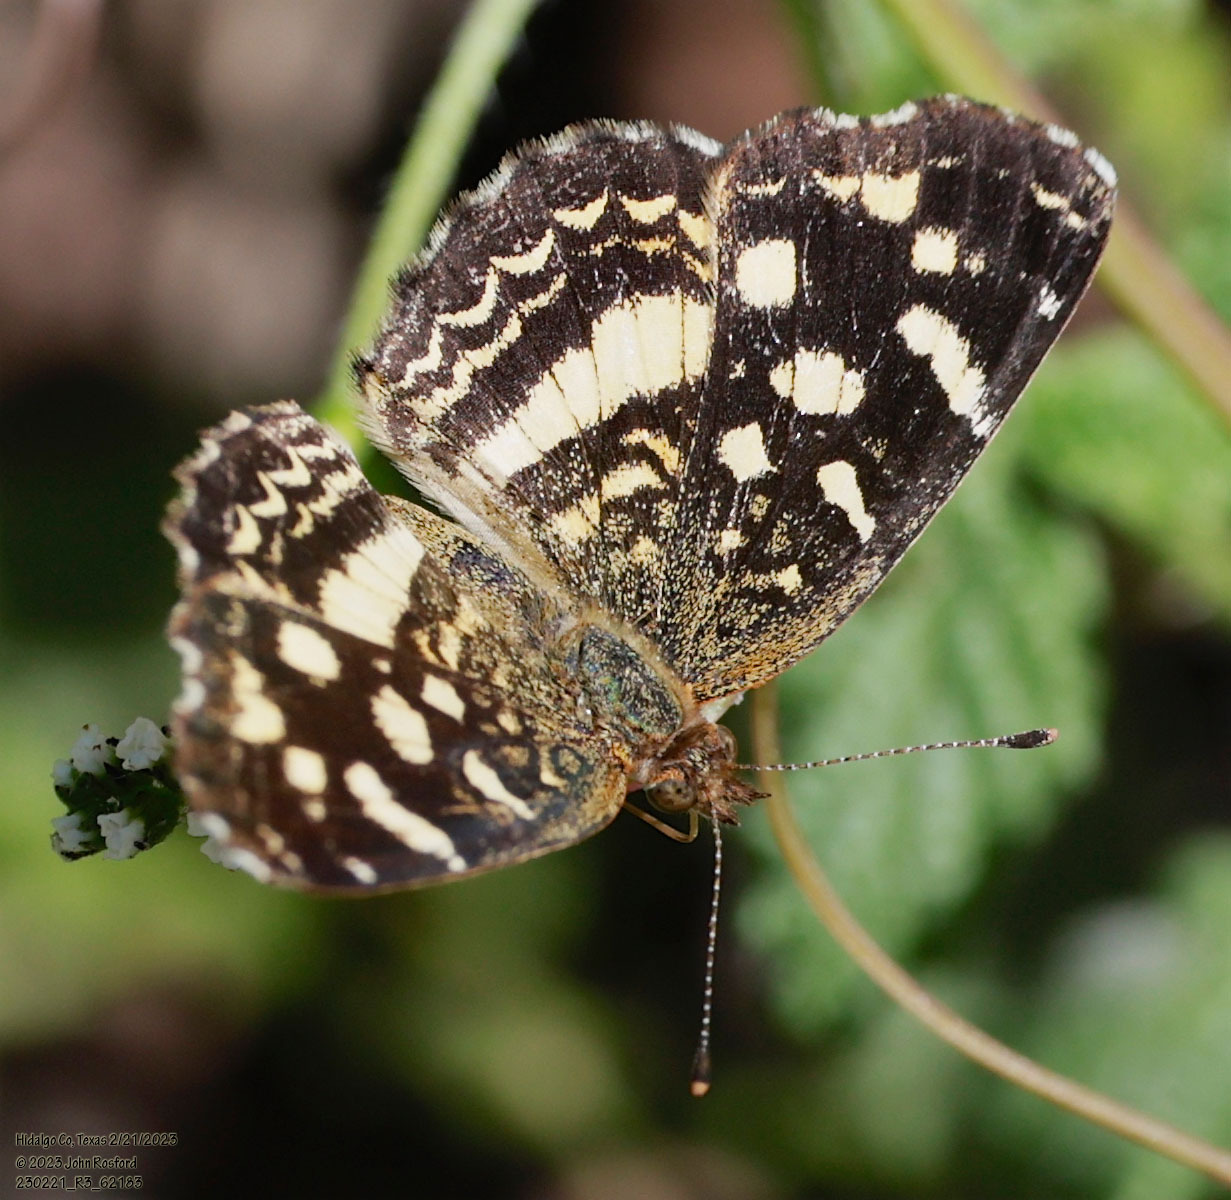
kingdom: Animalia
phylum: Arthropoda
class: Insecta
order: Lepidoptera
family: Nymphalidae
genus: Anthanassa
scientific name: Anthanassa tulcis
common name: Pale-banded crescent
